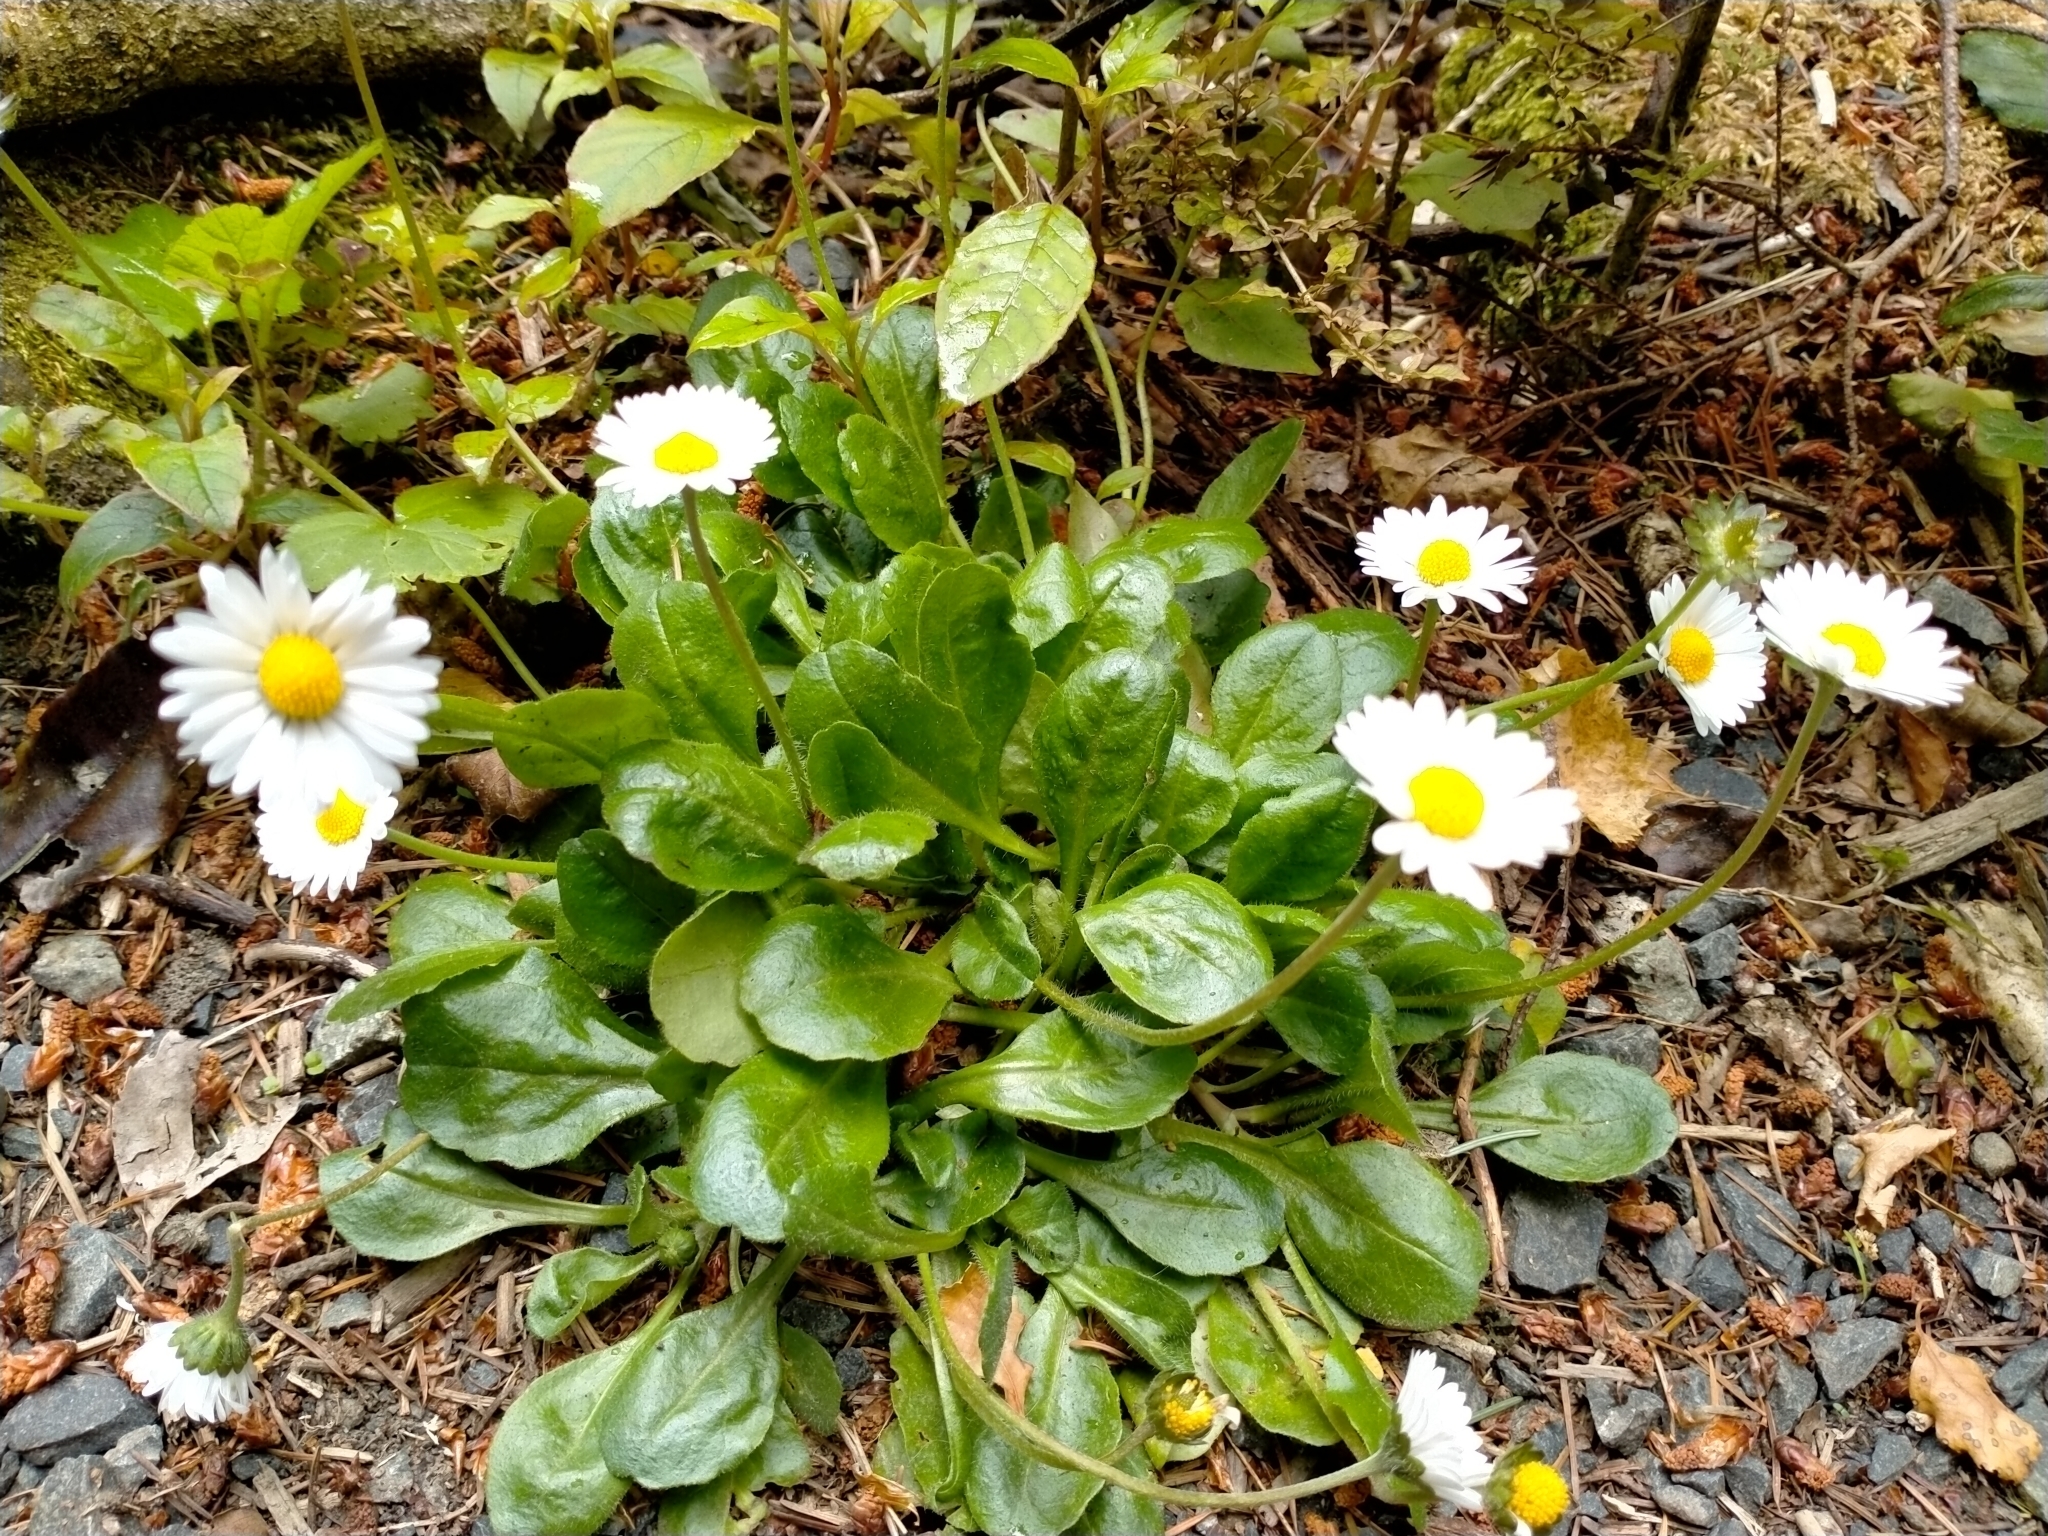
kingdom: Plantae
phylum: Tracheophyta
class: Magnoliopsida
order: Asterales
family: Asteraceae
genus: Bellis
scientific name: Bellis perennis
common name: Lawndaisy
